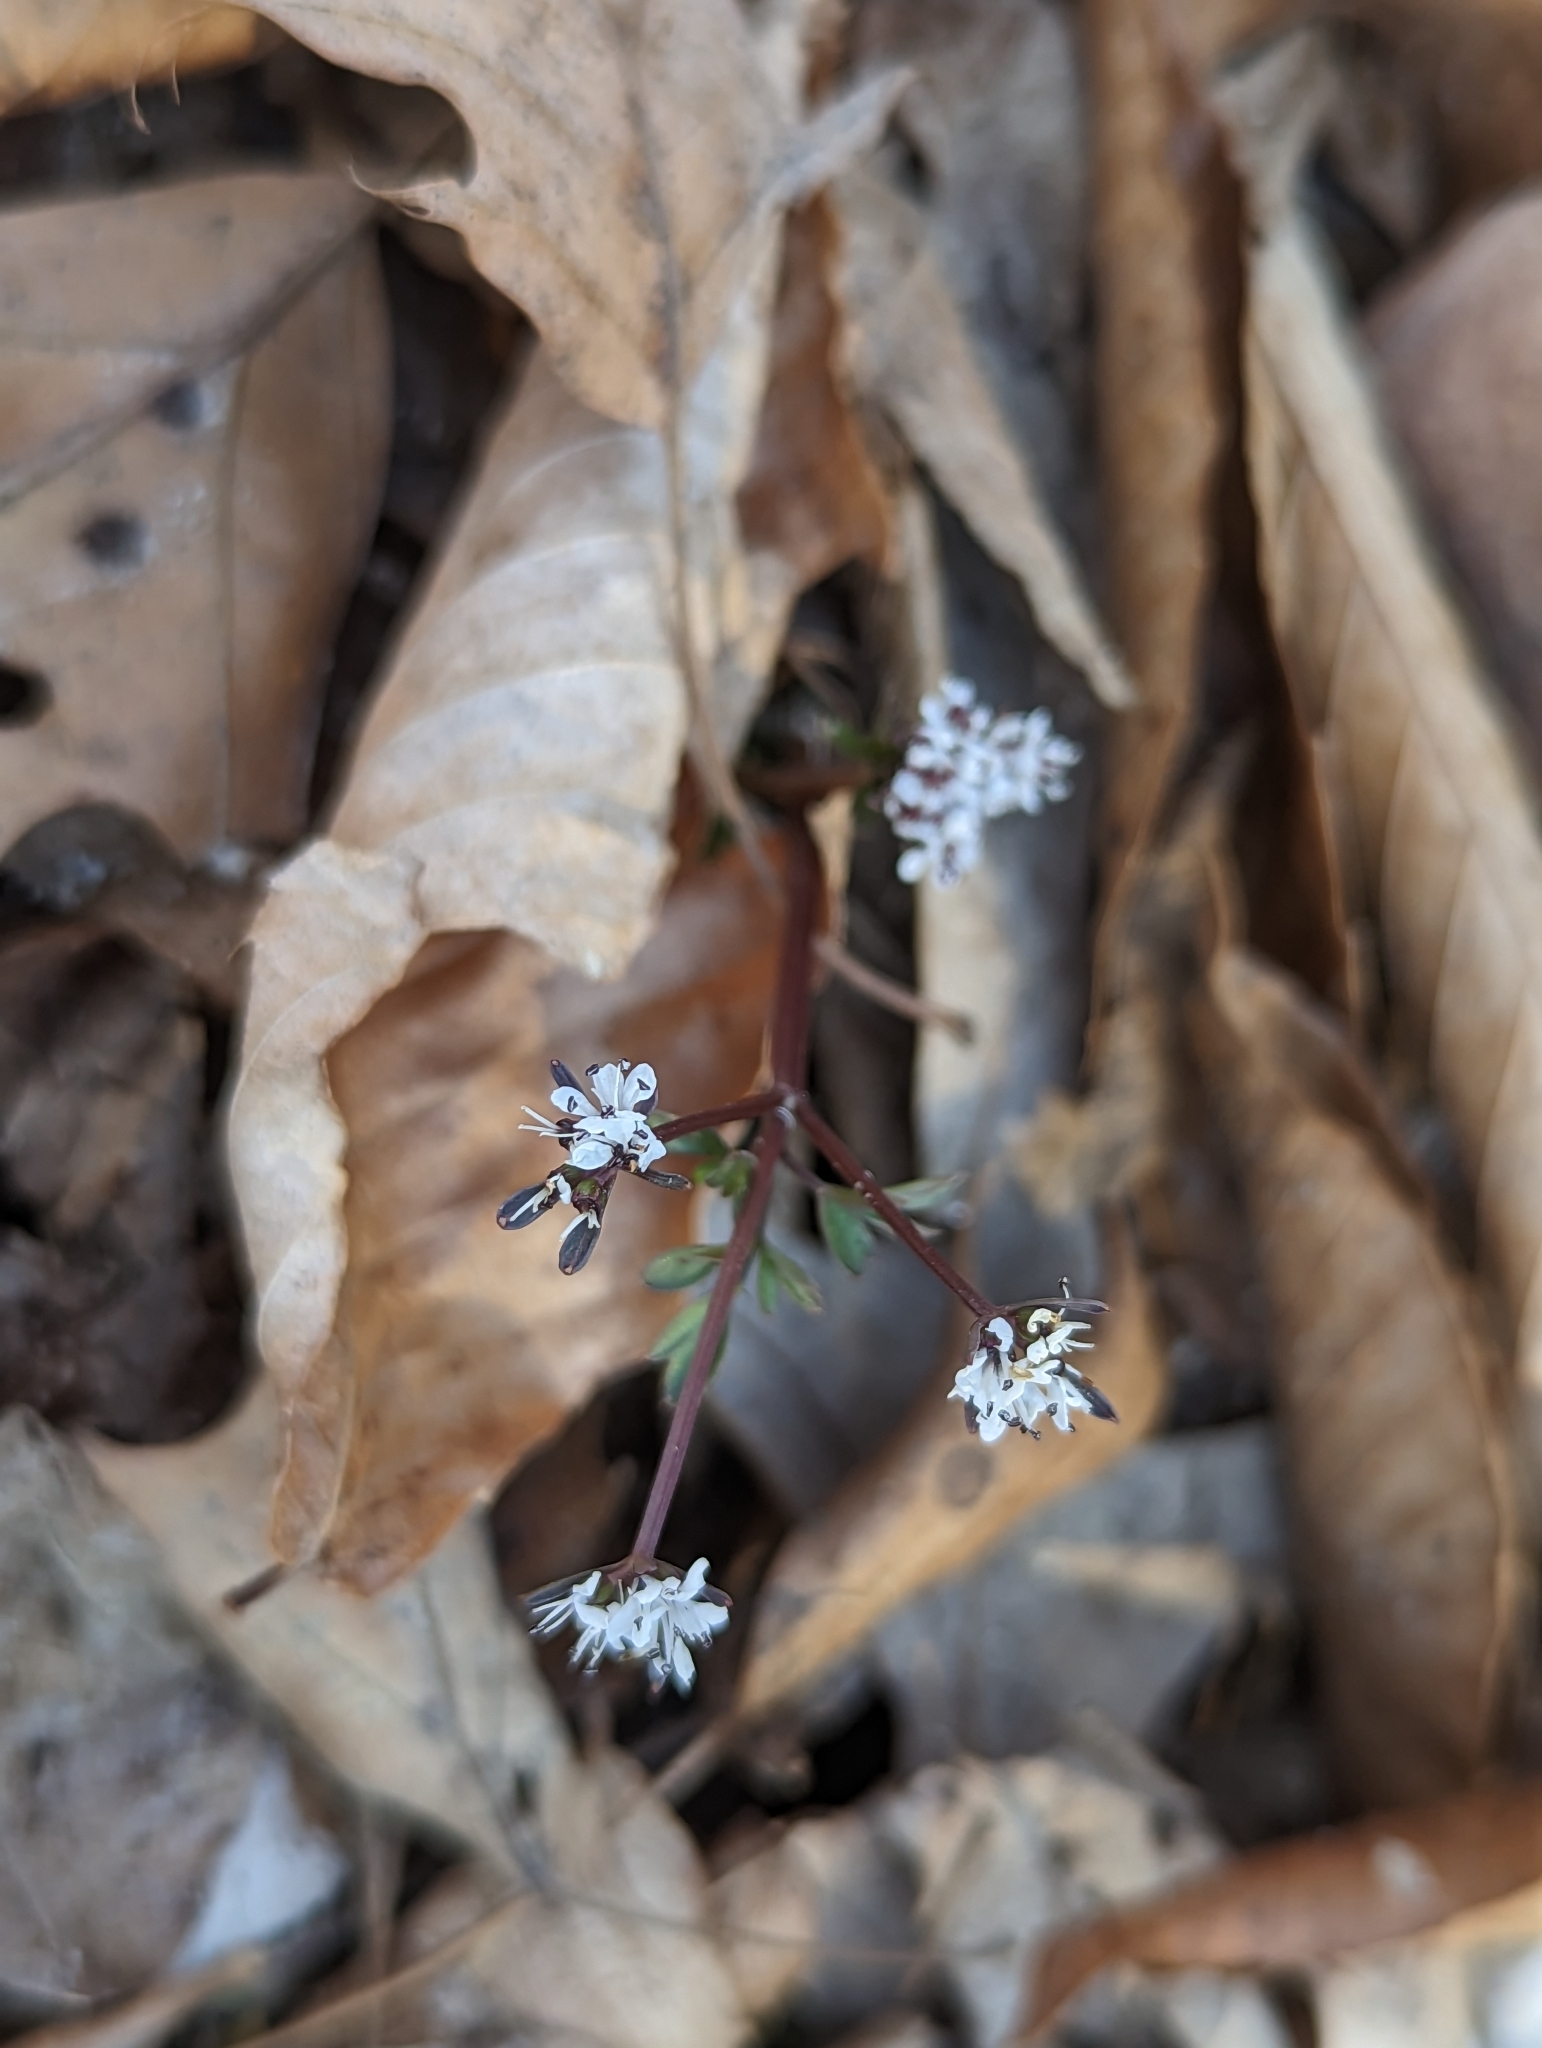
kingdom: Plantae
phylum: Tracheophyta
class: Magnoliopsida
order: Apiales
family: Apiaceae
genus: Erigenia
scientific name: Erigenia bulbosa
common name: Pepper-and-salt
